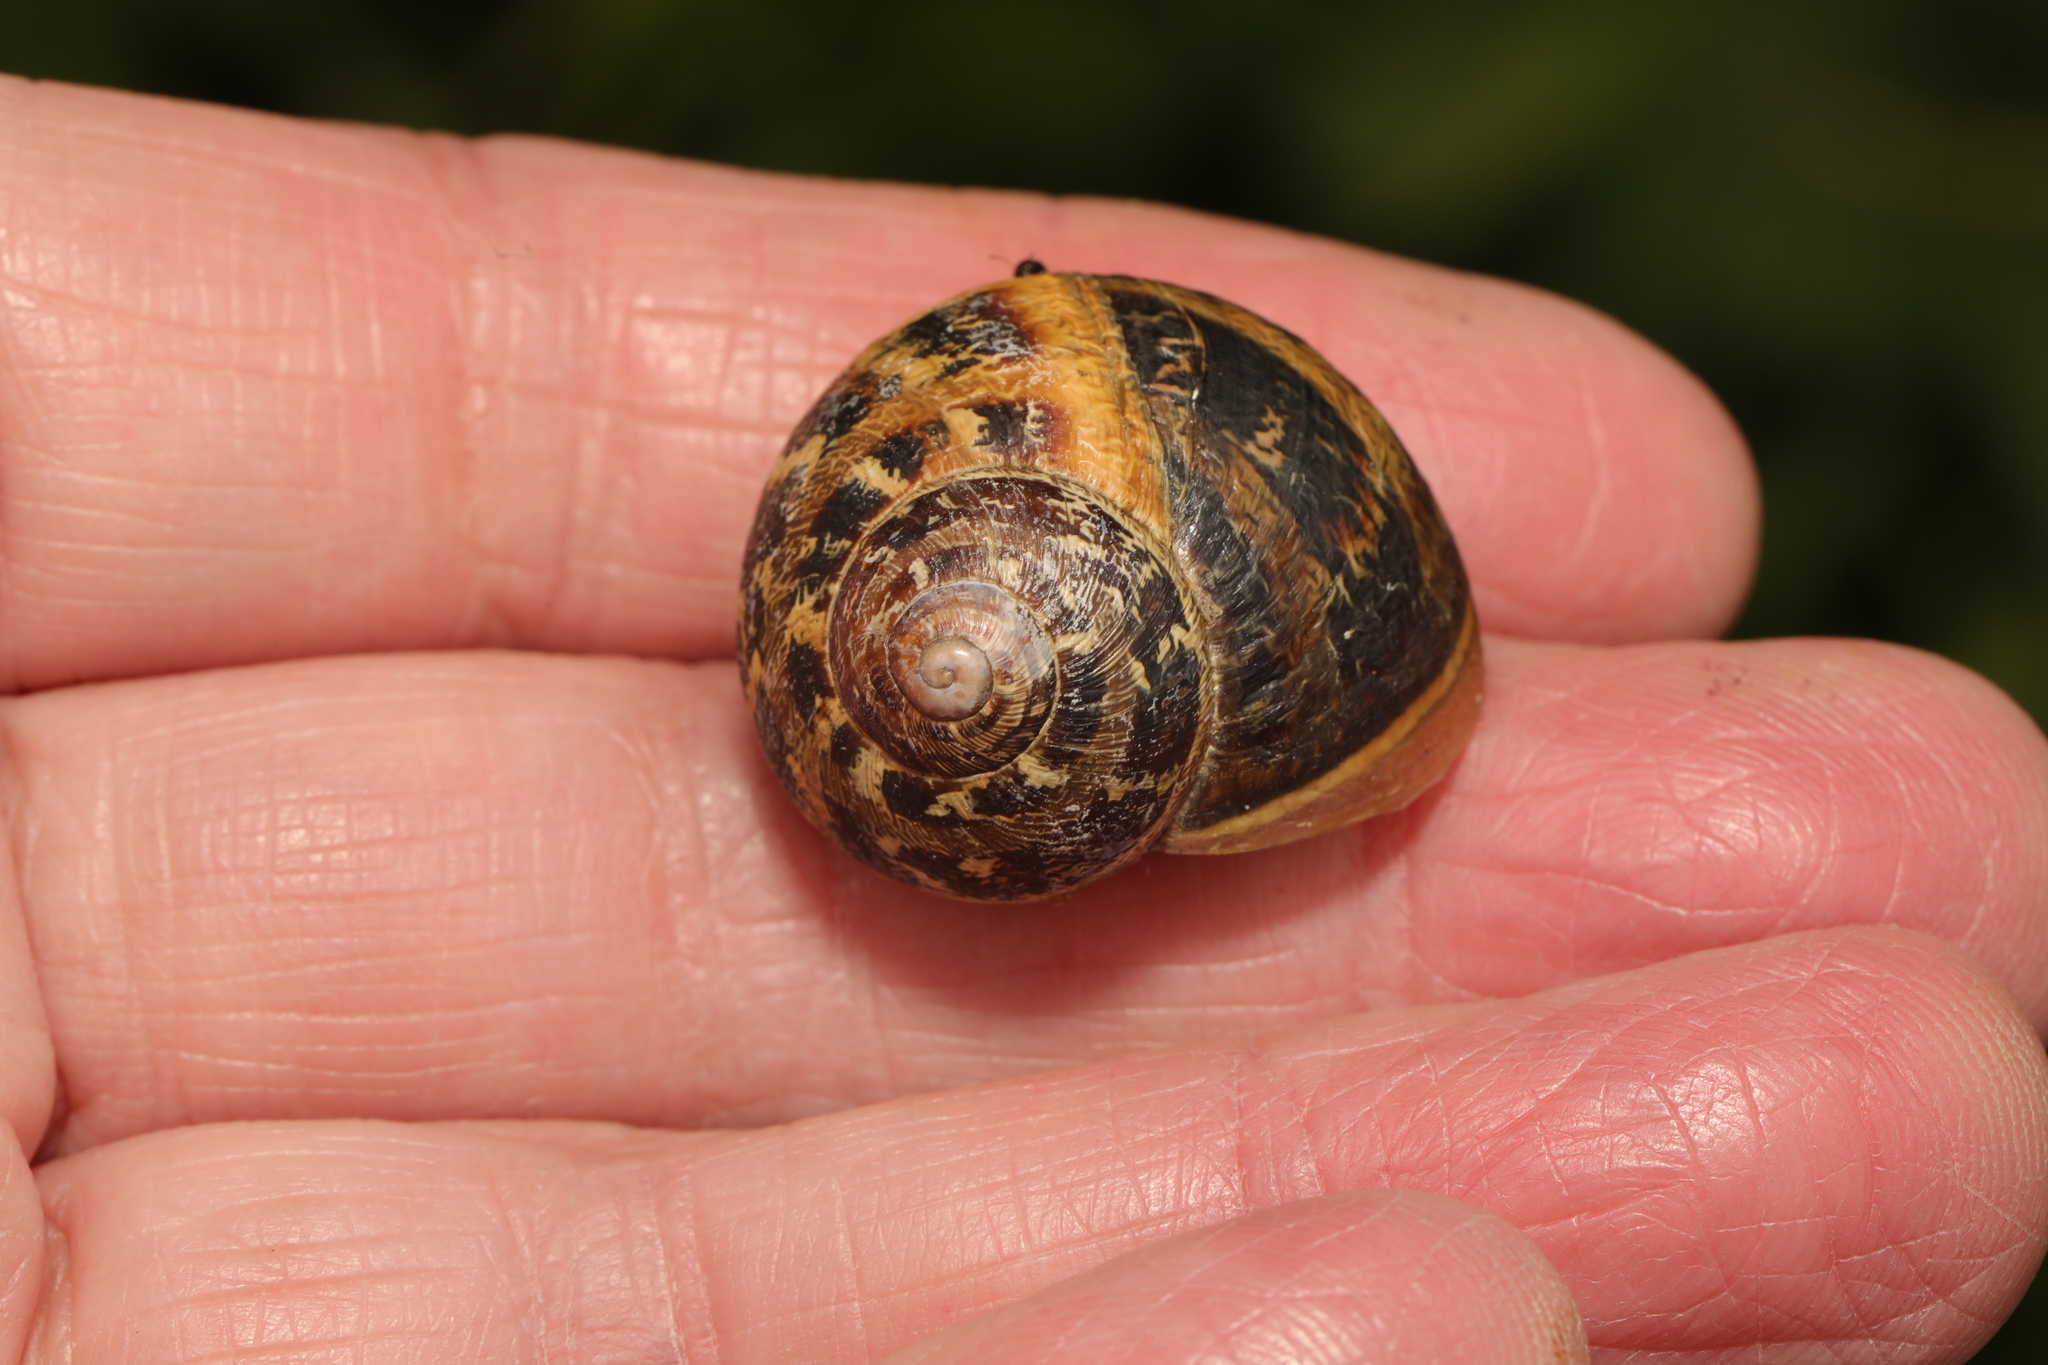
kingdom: Animalia
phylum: Mollusca
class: Gastropoda
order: Stylommatophora
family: Helicidae
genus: Cornu
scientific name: Cornu aspersum
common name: Brown garden snail
